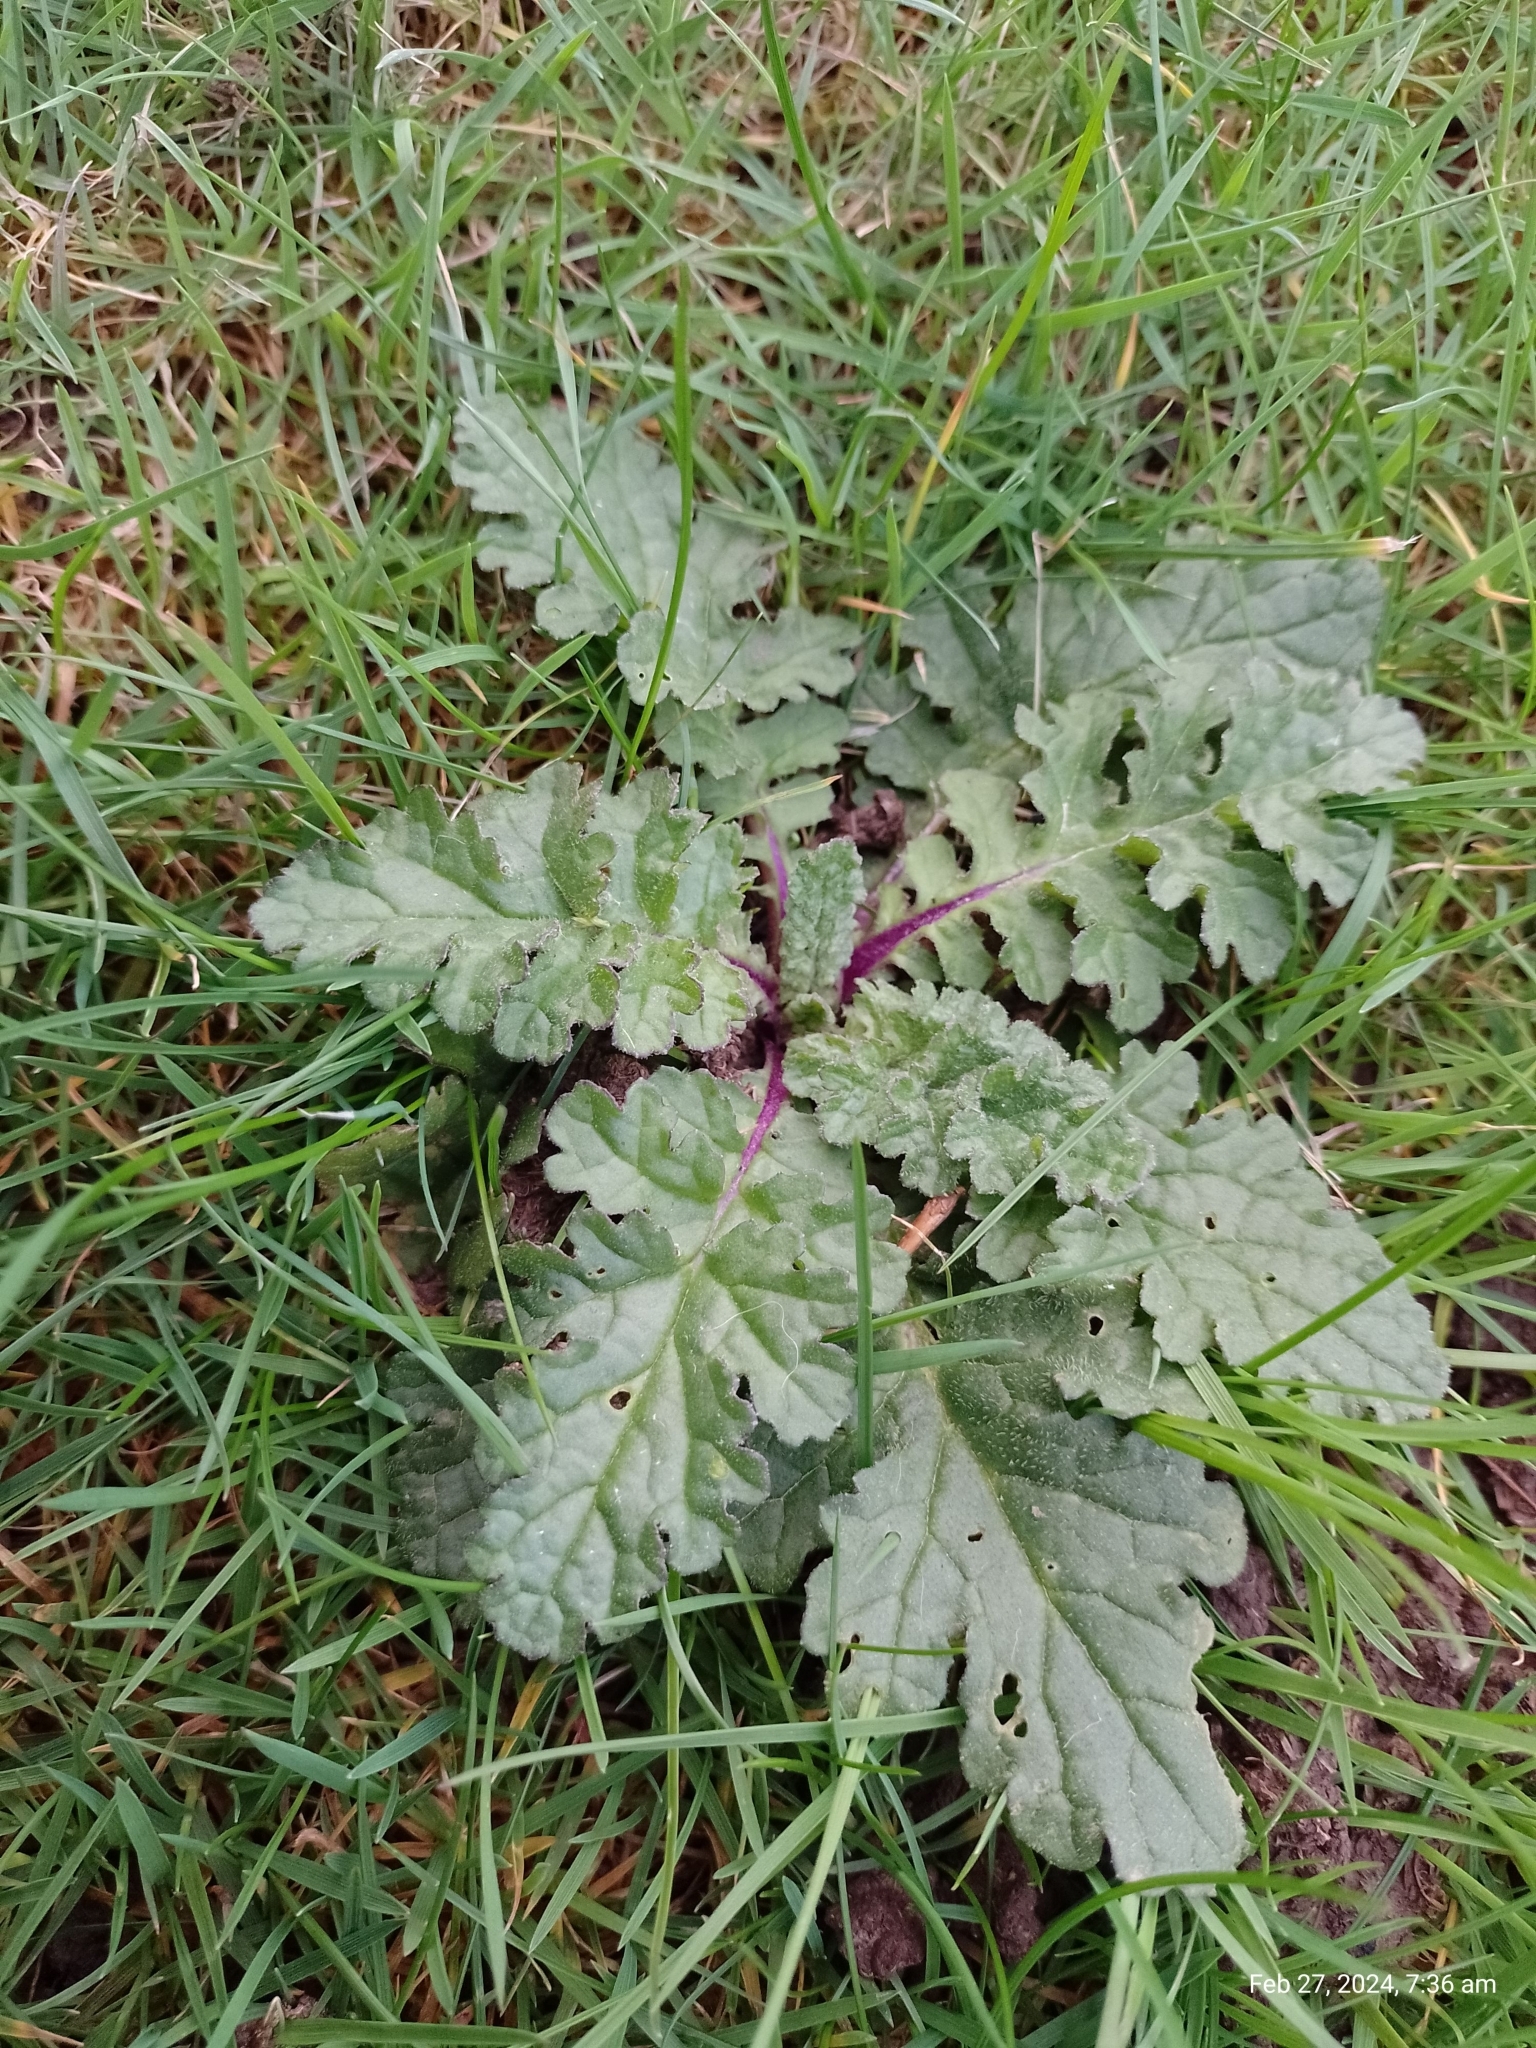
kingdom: Plantae
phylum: Tracheophyta
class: Magnoliopsida
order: Asterales
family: Asteraceae
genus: Jacobaea
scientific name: Jacobaea vulgaris
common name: Stinking willie
